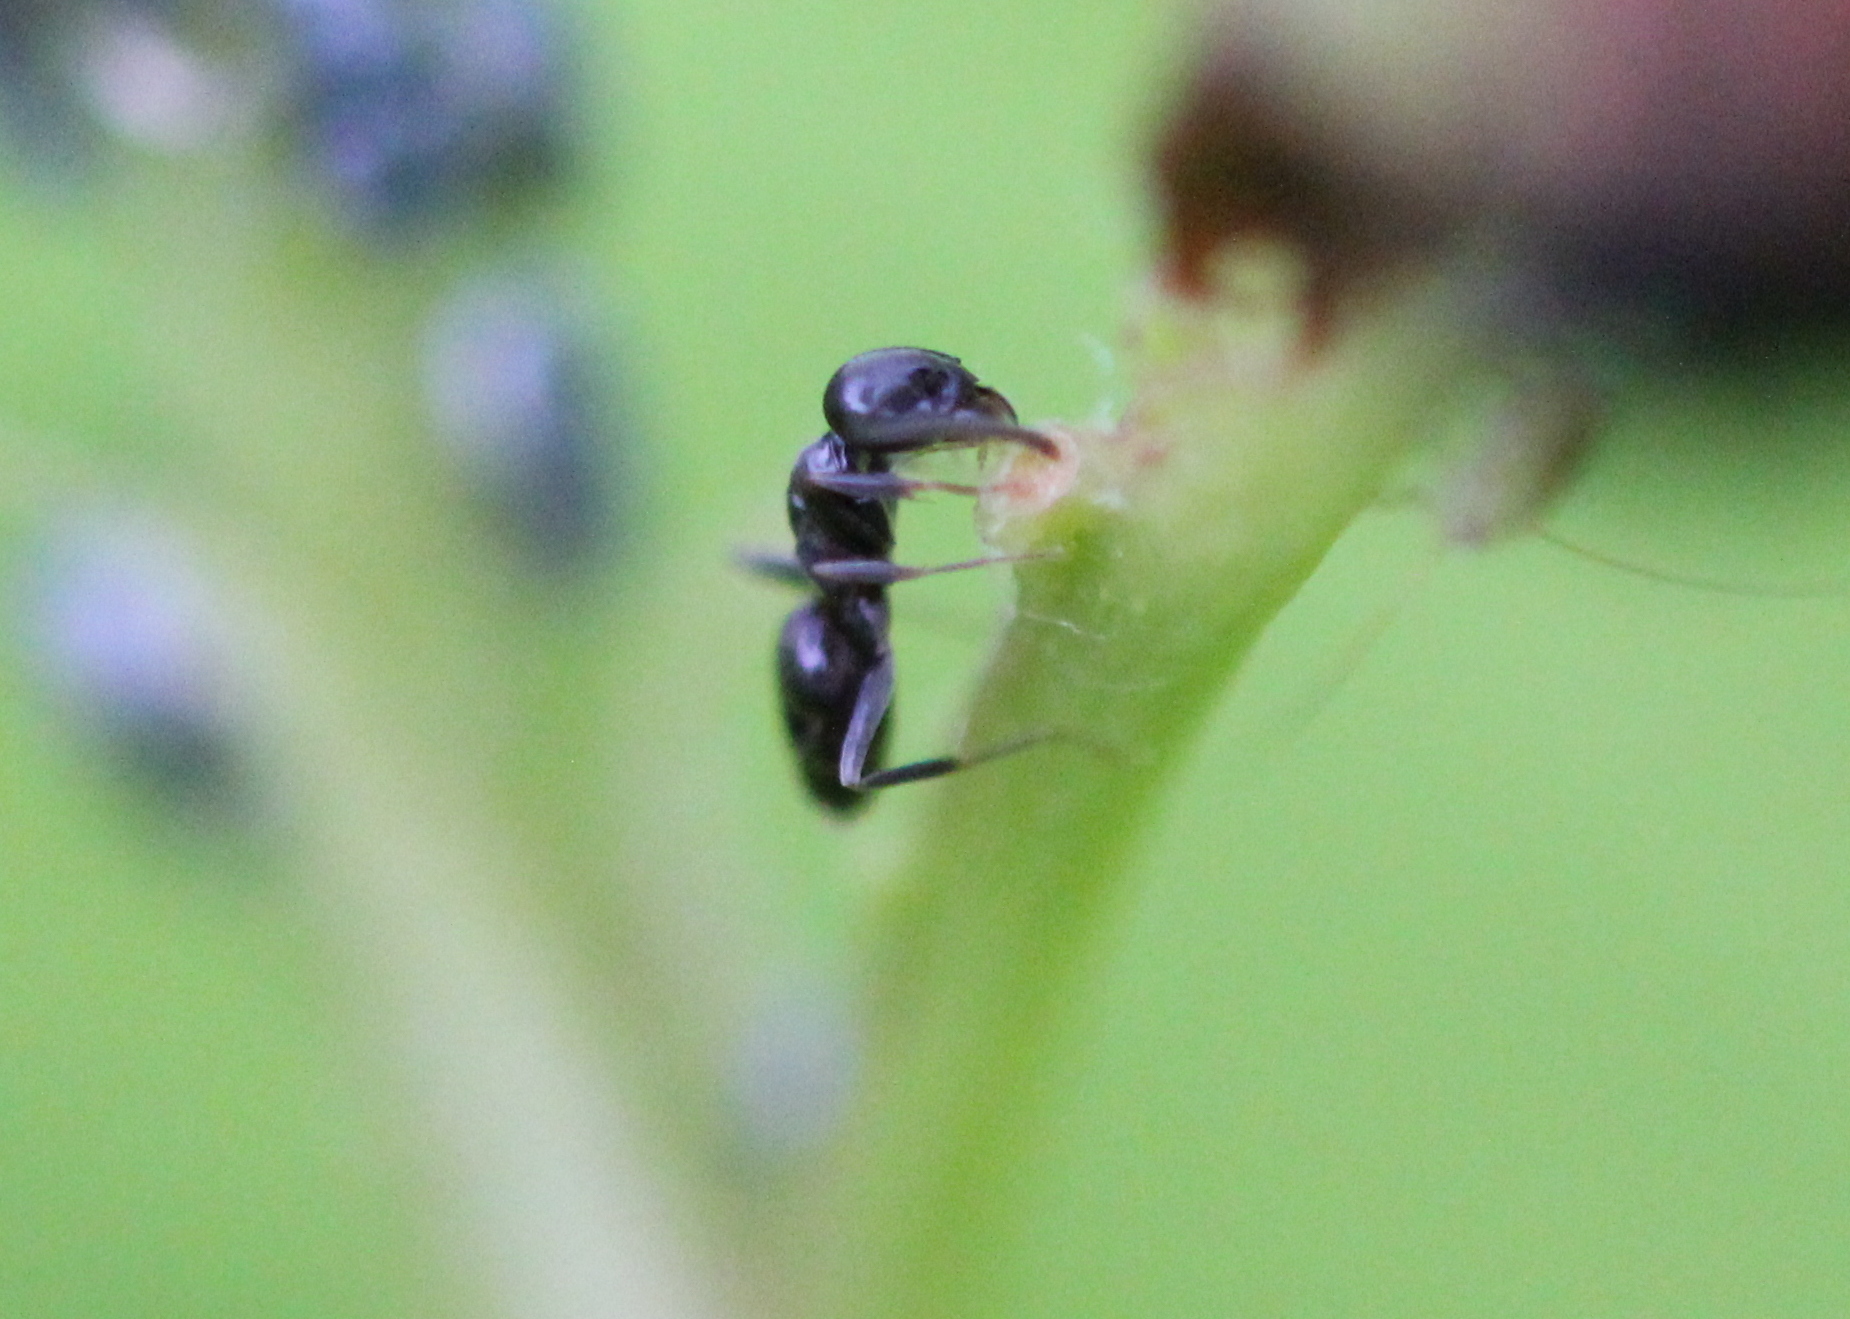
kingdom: Animalia
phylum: Arthropoda
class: Insecta
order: Hymenoptera
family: Formicidae
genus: Tapinoma
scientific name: Tapinoma sessile
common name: Odorous house ant
